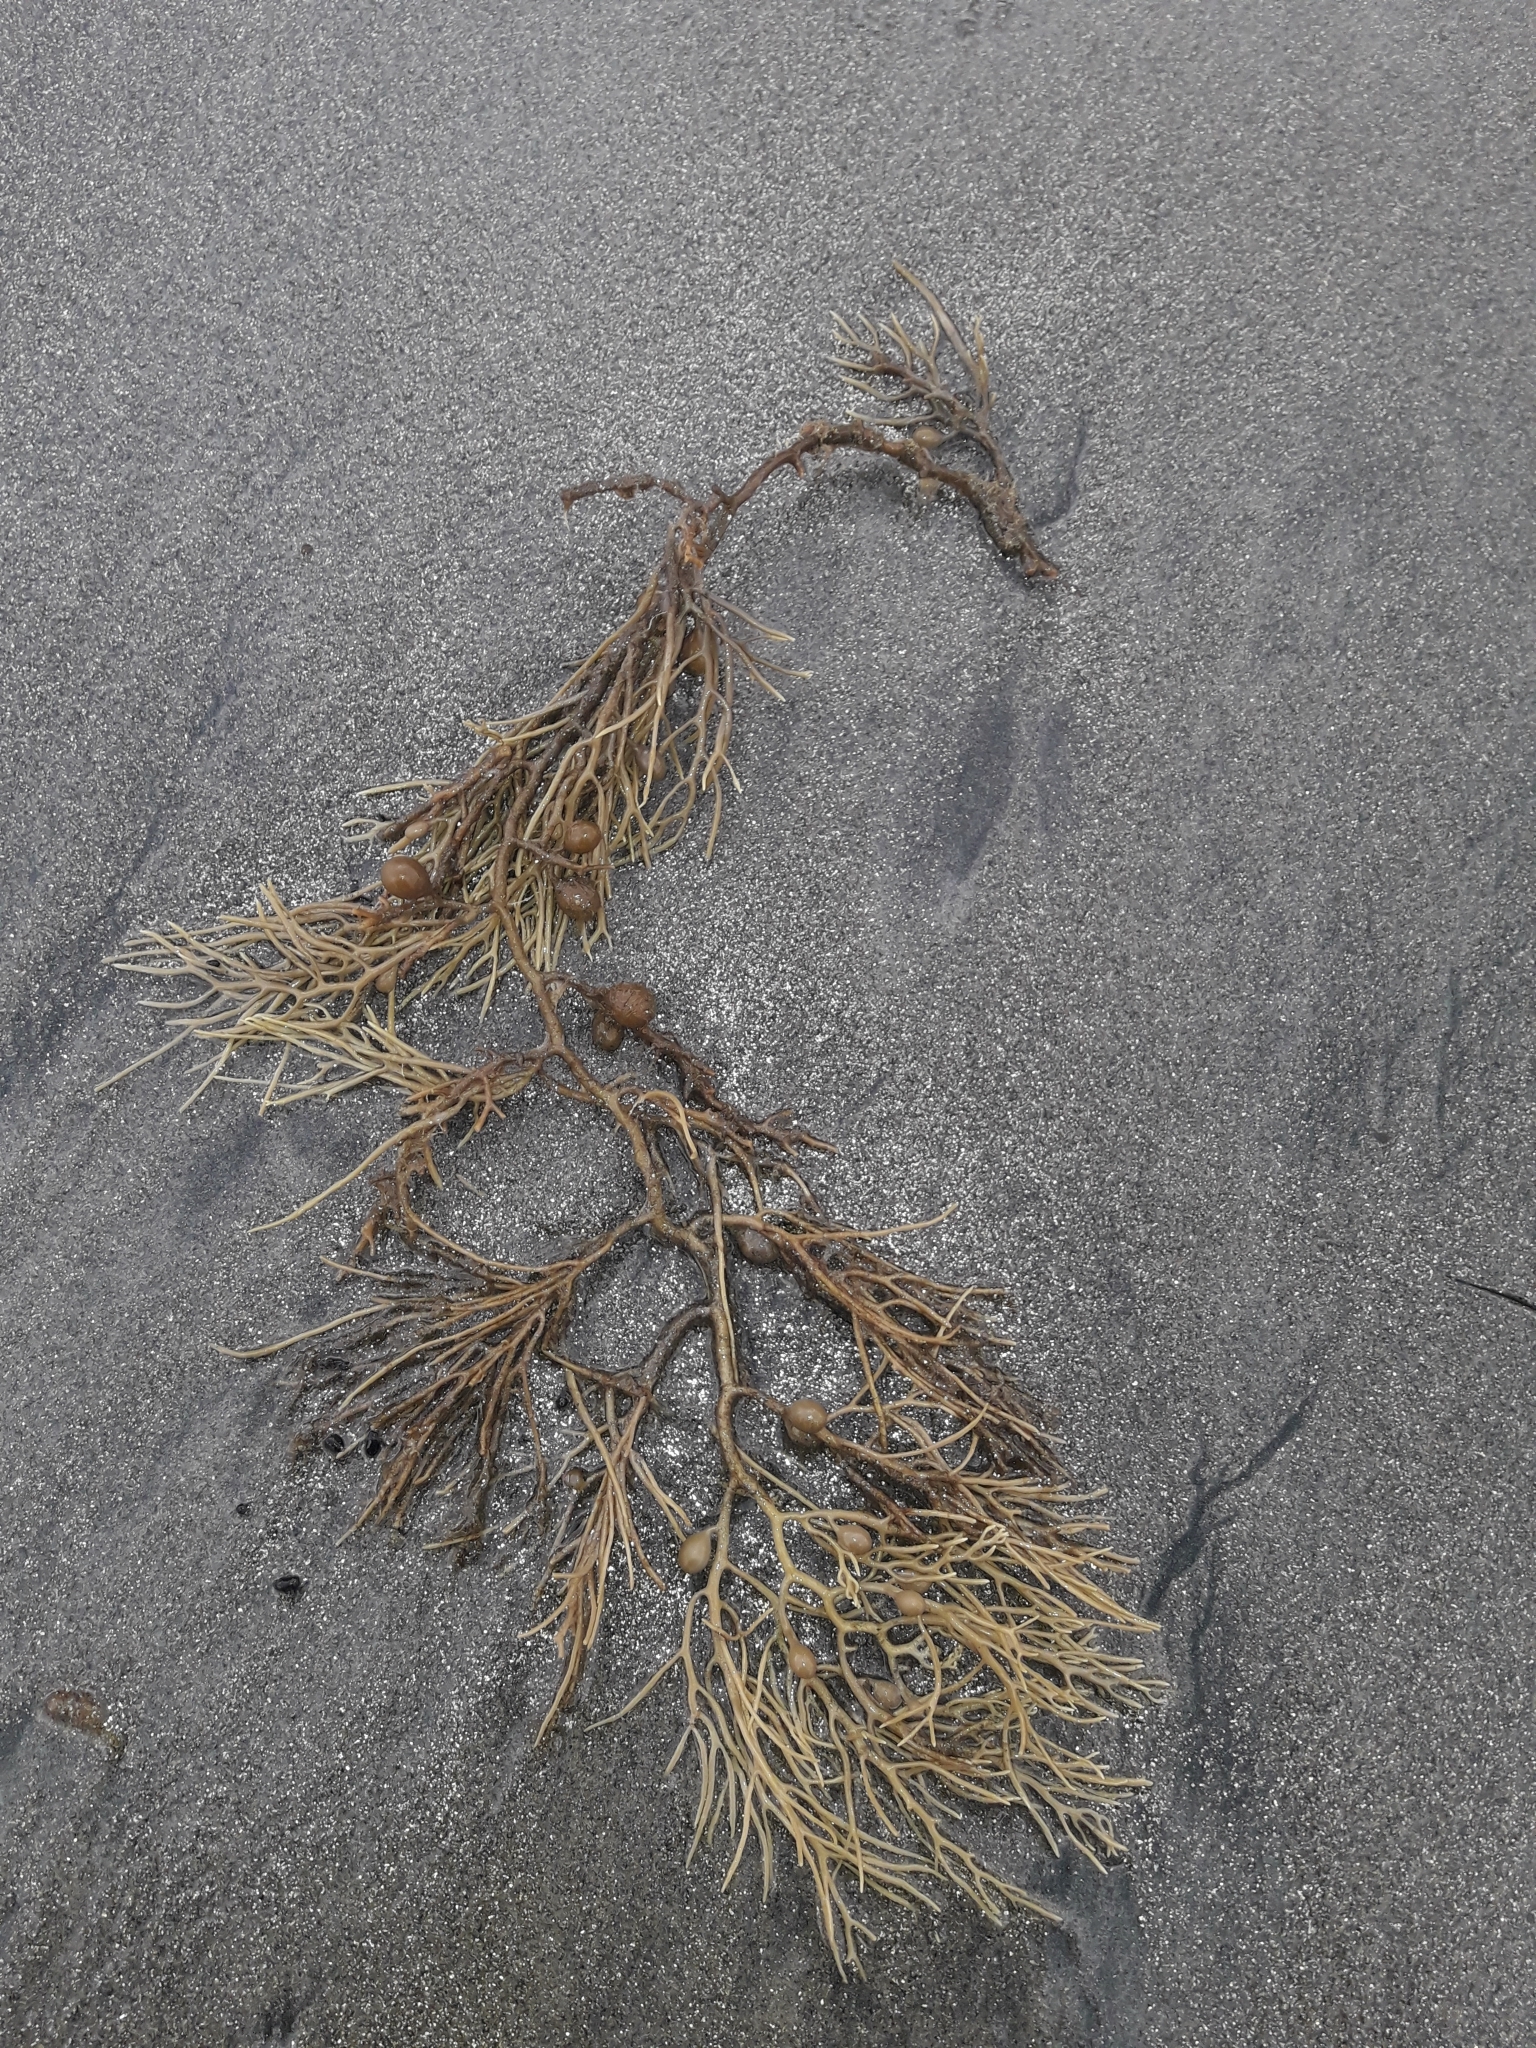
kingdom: Chromista
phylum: Ochrophyta
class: Phaeophyceae
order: Fucales
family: Sargassaceae
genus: Cystophora
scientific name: Cystophora retroflexa
